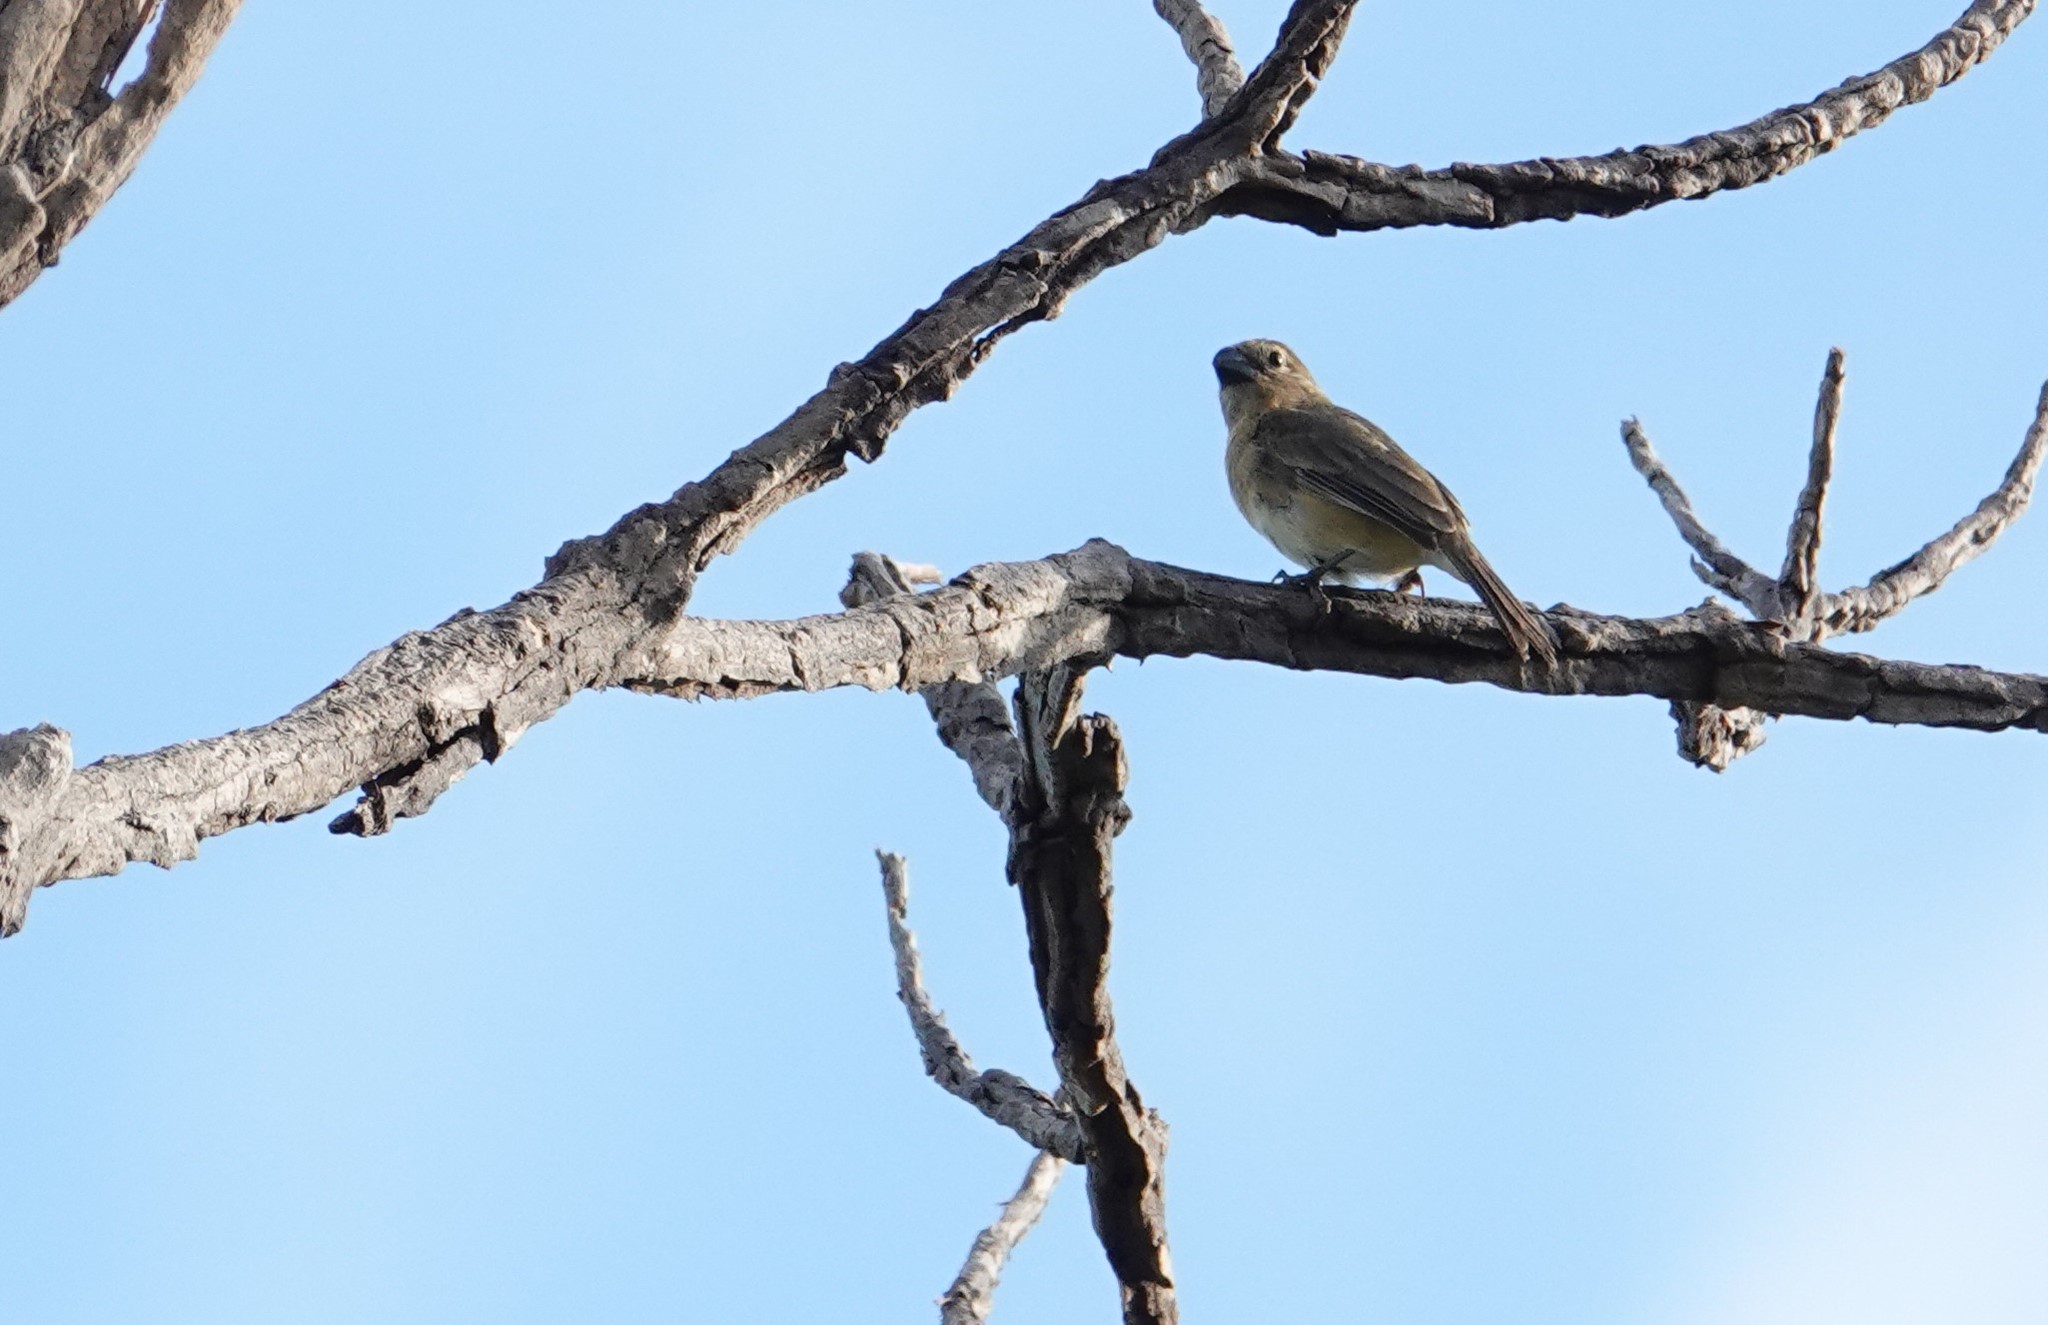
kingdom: Animalia
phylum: Chordata
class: Aves
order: Passeriformes
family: Thraupidae
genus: Sporophila
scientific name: Sporophila intermedia
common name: Grey seedeater
